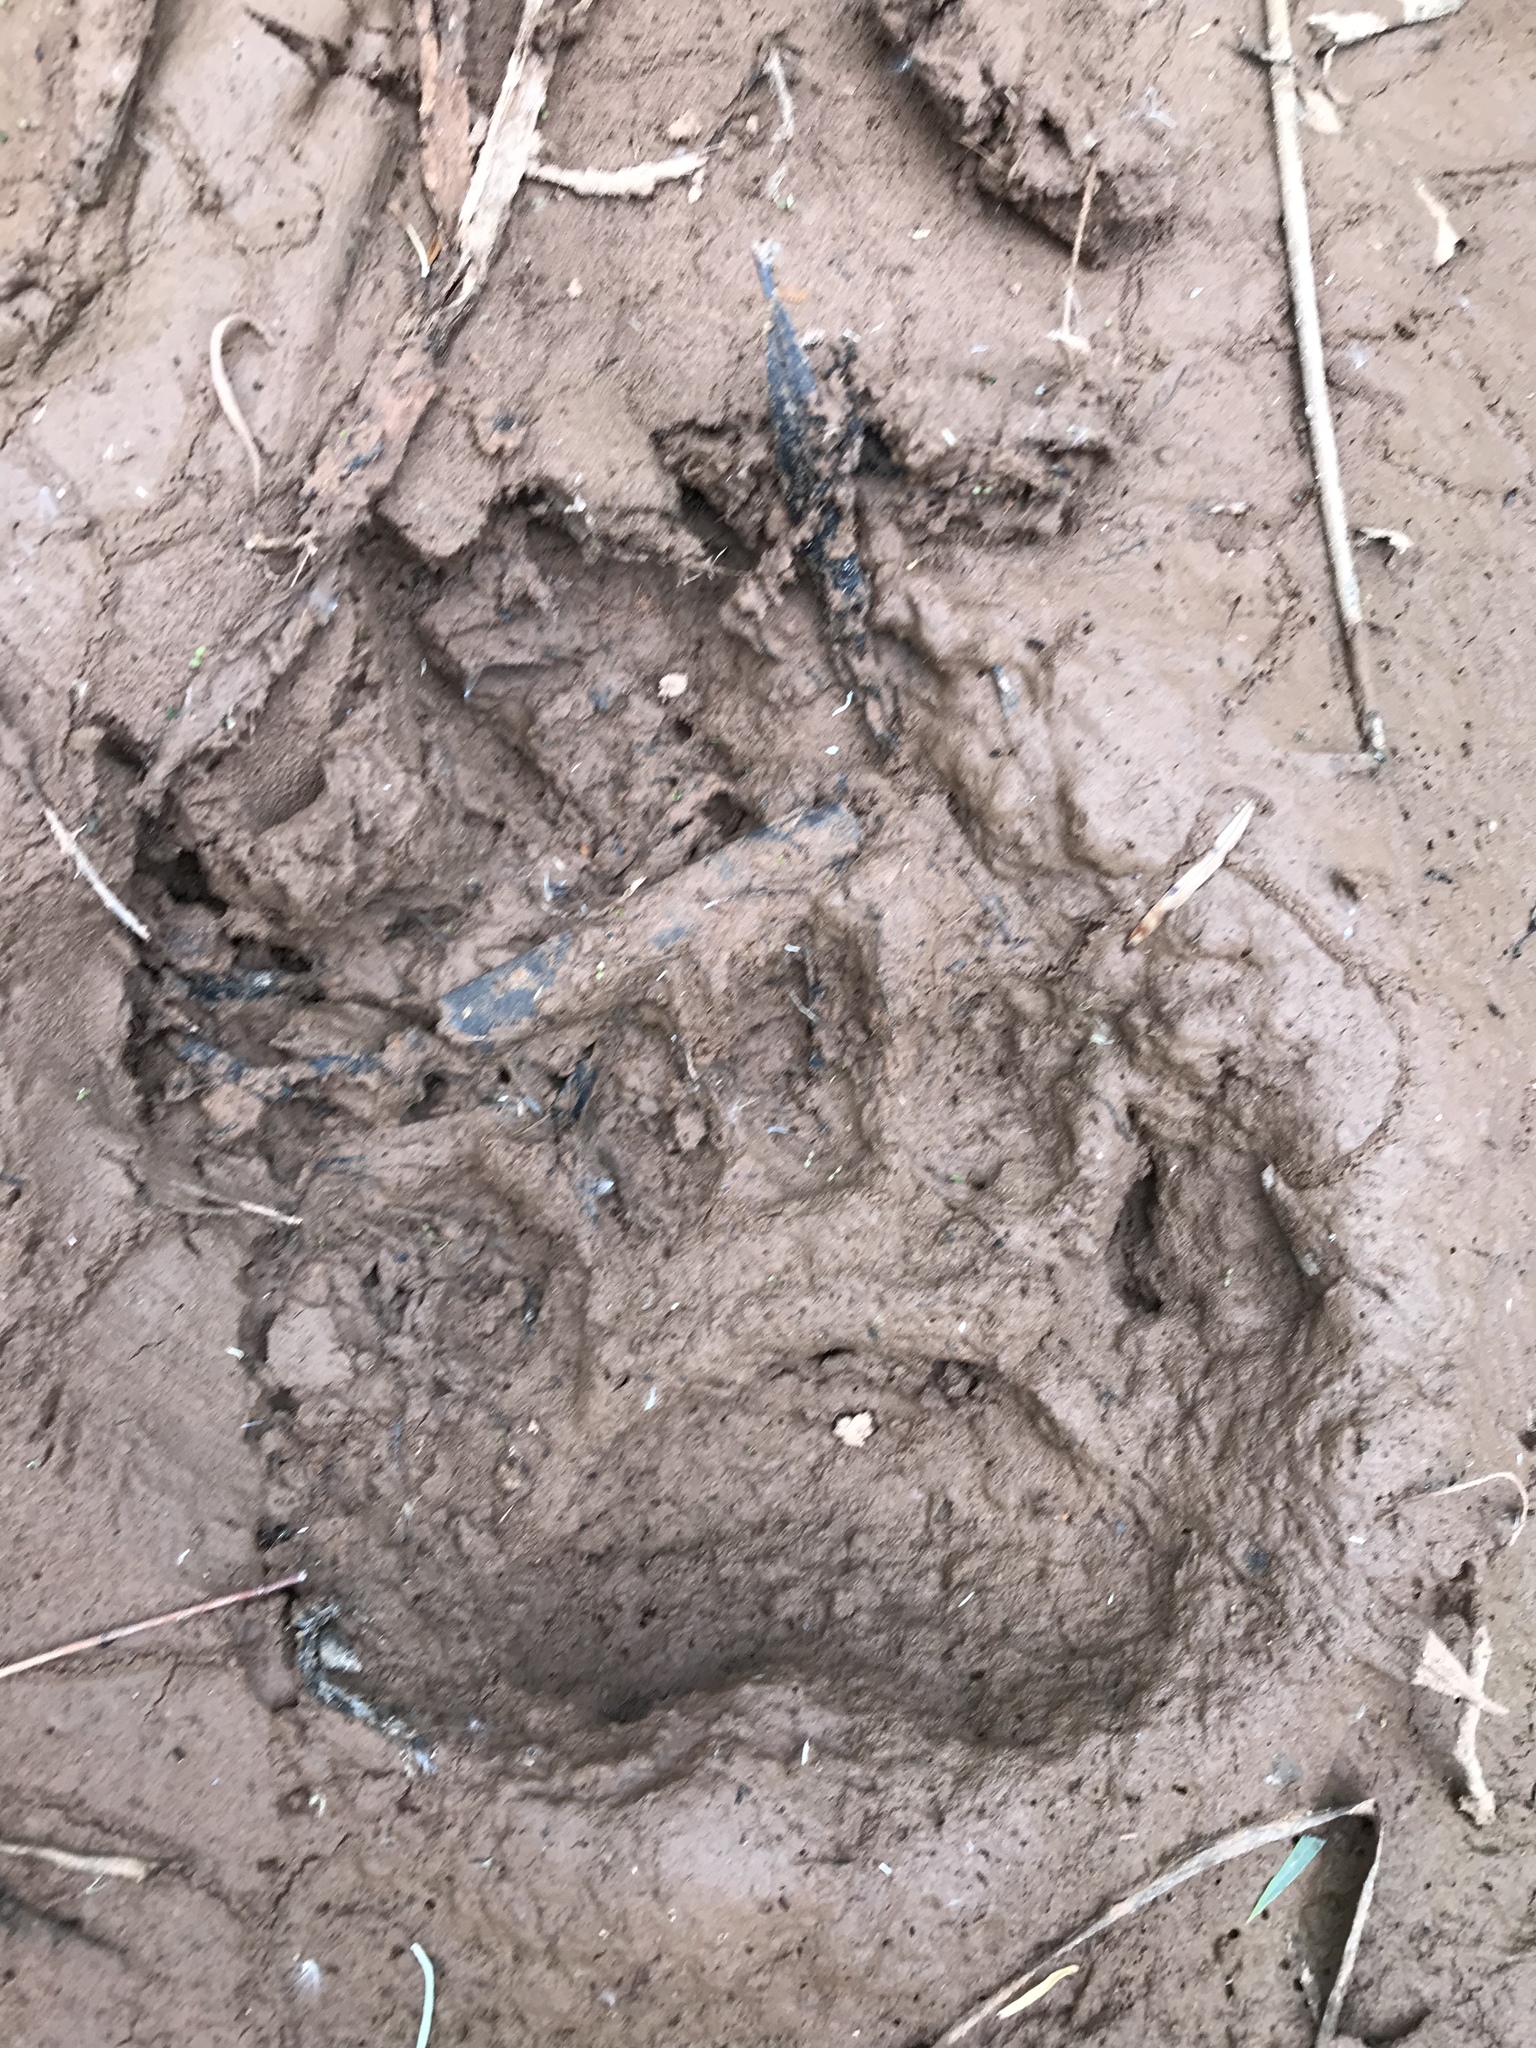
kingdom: Animalia
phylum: Chordata
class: Mammalia
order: Carnivora
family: Ursidae
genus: Ursus
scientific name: Ursus americanus
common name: American black bear
